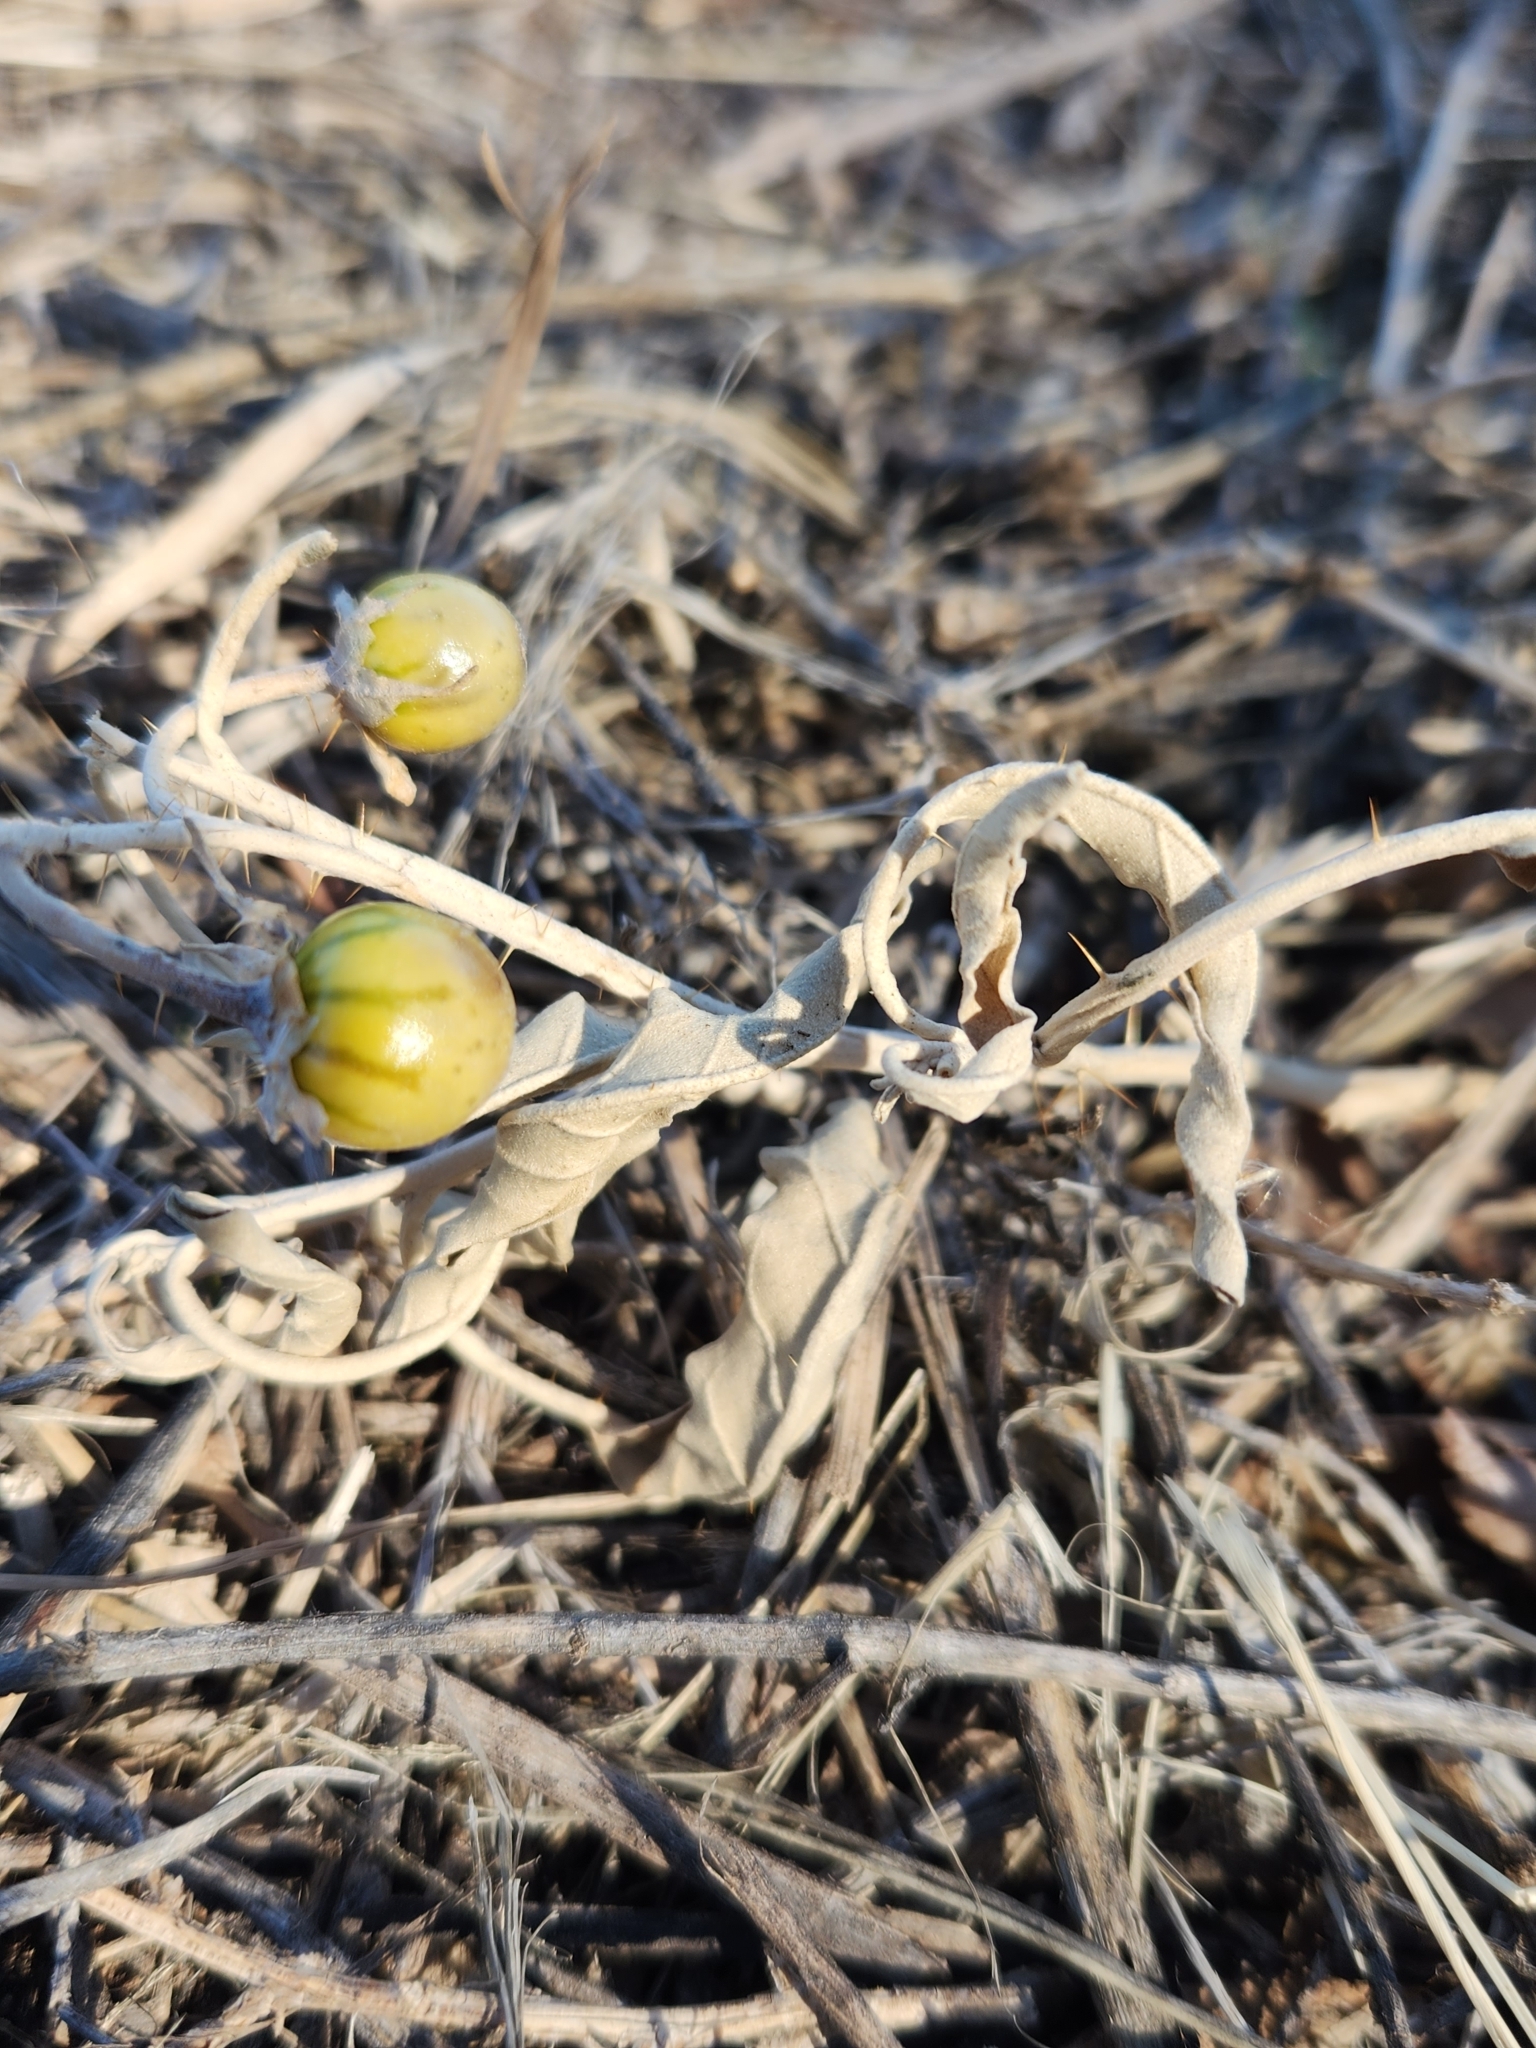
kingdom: Plantae
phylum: Tracheophyta
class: Magnoliopsida
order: Solanales
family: Solanaceae
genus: Solanum
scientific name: Solanum elaeagnifolium
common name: Silverleaf nightshade
